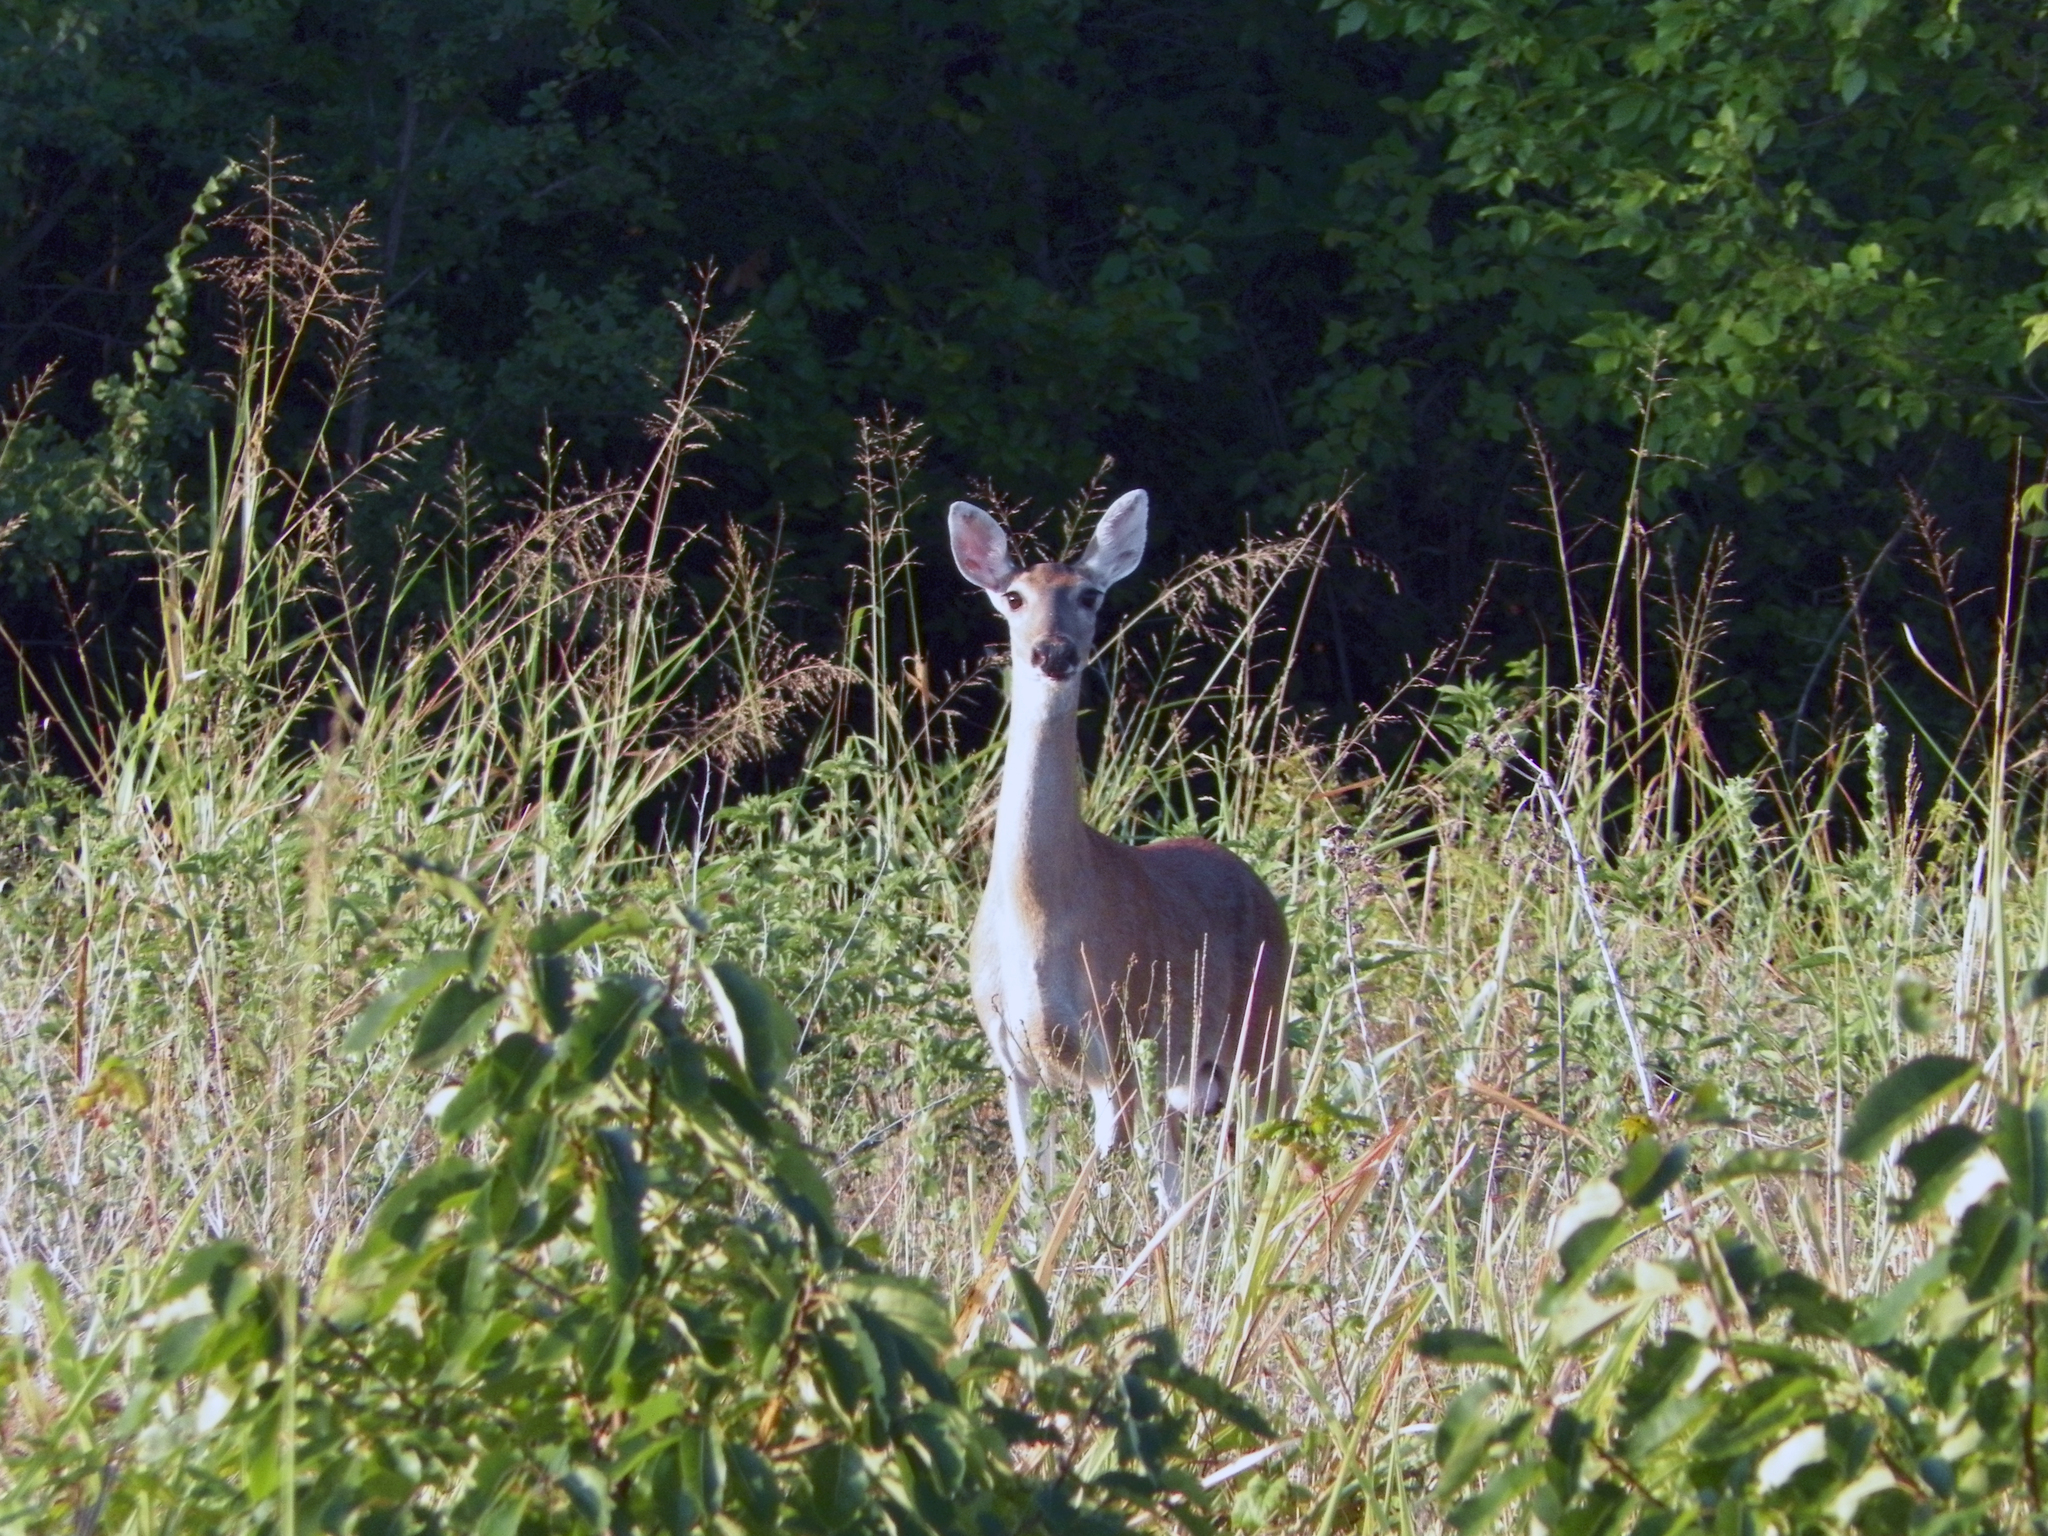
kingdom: Animalia
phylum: Chordata
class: Mammalia
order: Artiodactyla
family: Cervidae
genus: Odocoileus
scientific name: Odocoileus virginianus
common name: White-tailed deer
